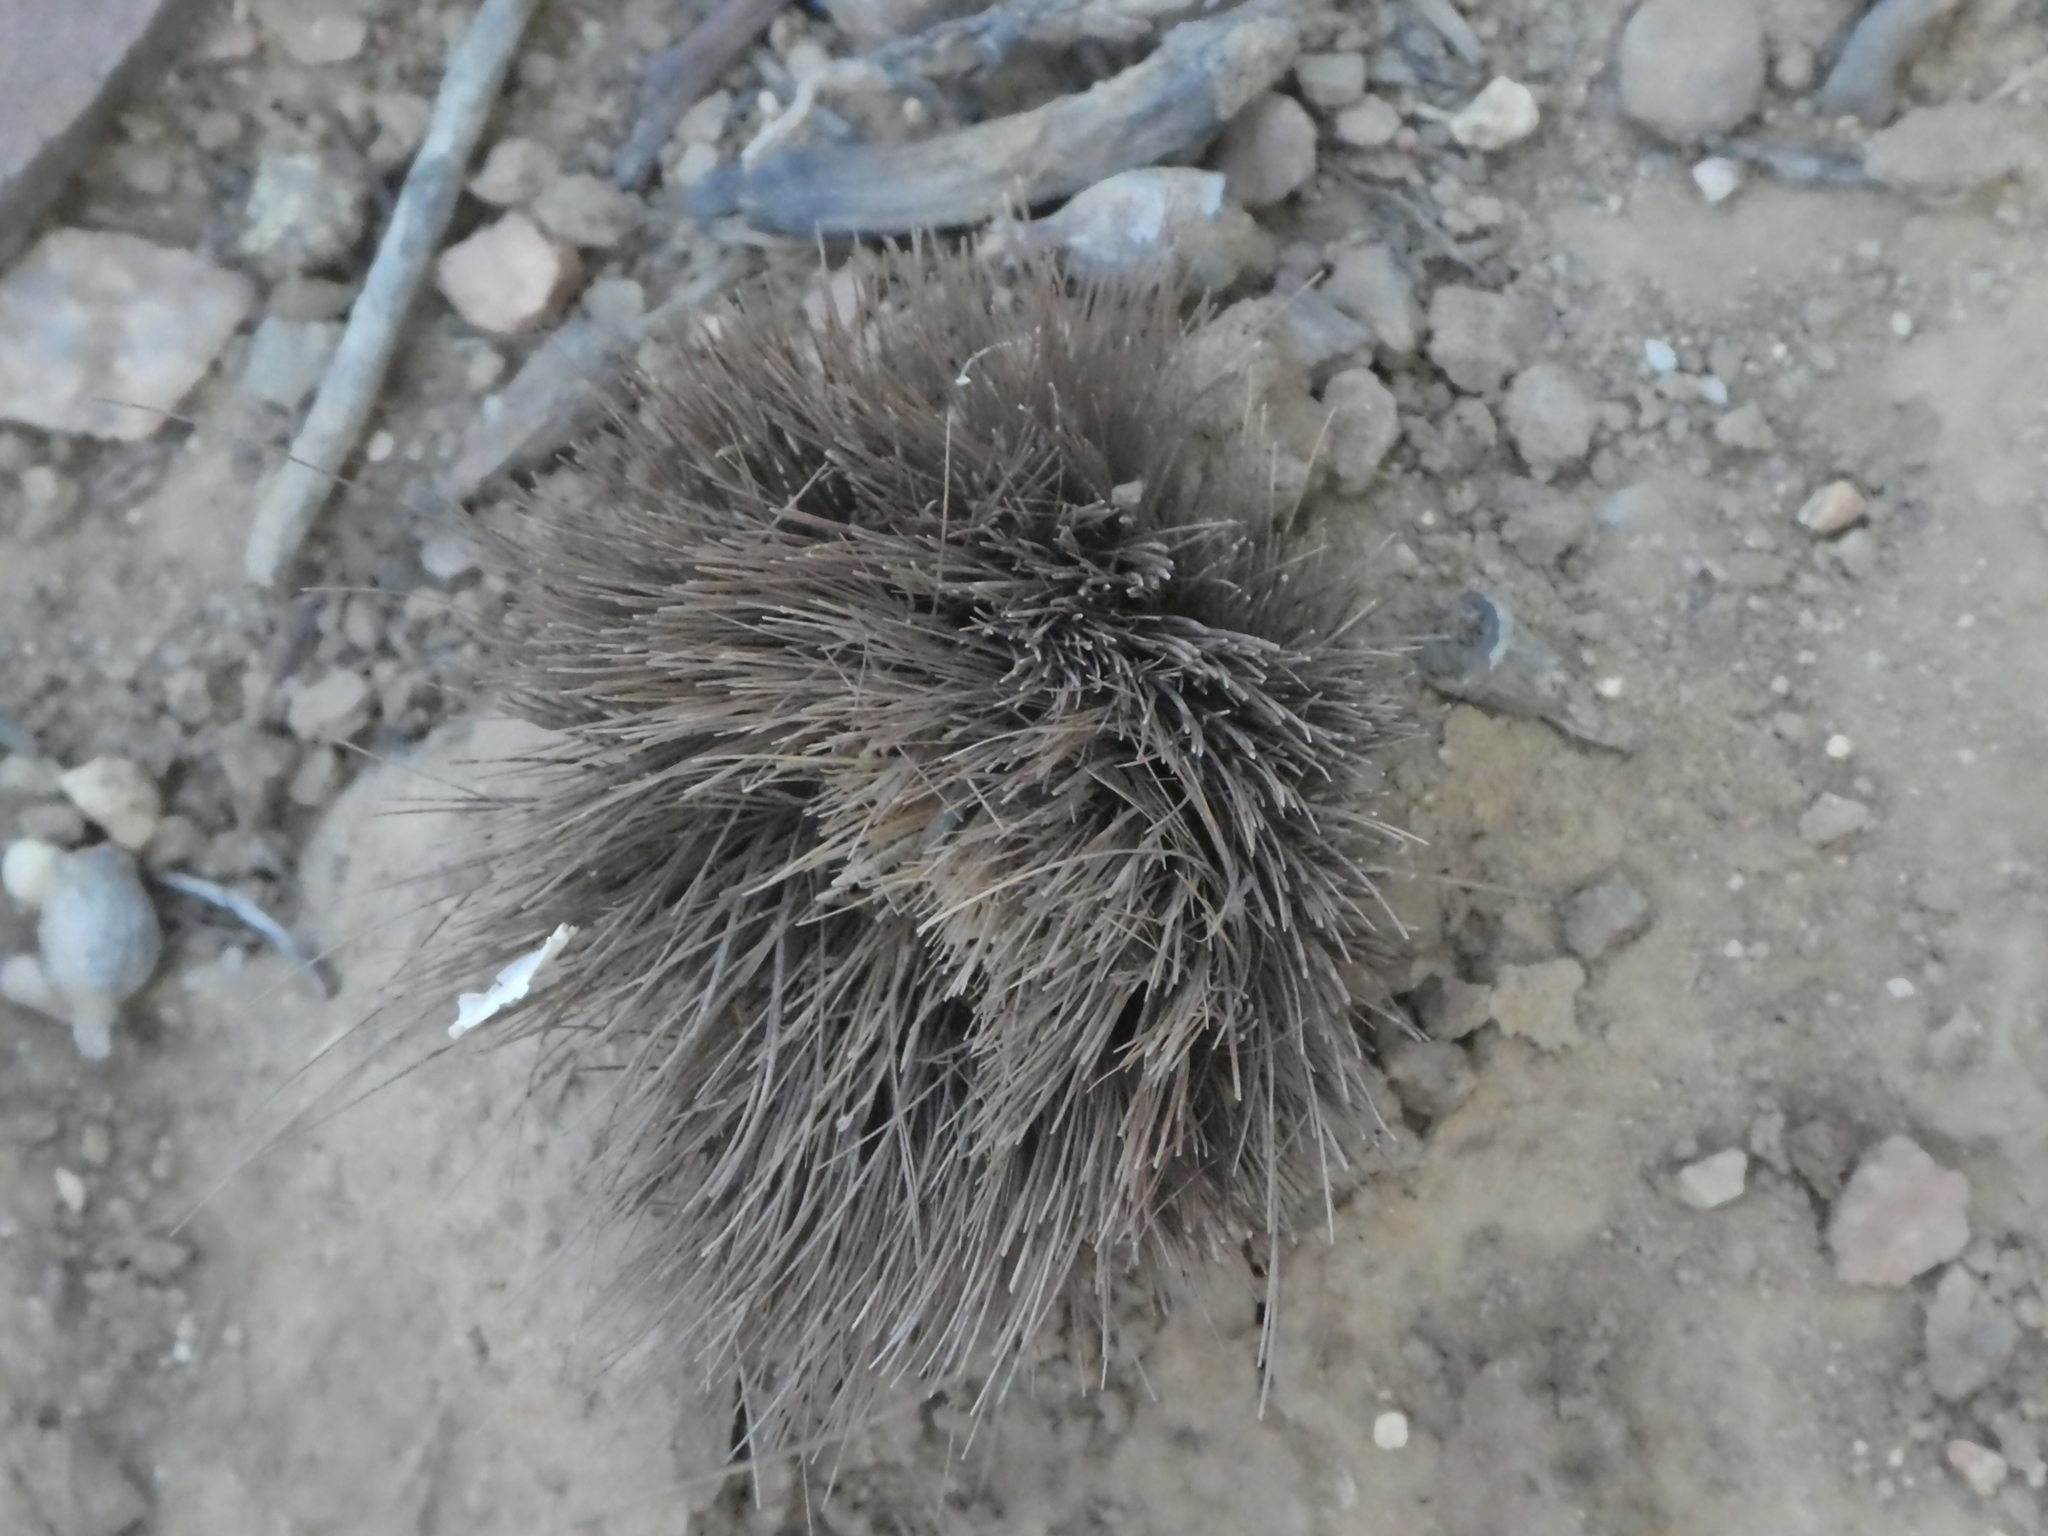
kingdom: Plantae
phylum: Tracheophyta
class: Liliopsida
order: Asparagales
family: Asparagaceae
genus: Chlorogalum
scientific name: Chlorogalum pomeridianum
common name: Amole
